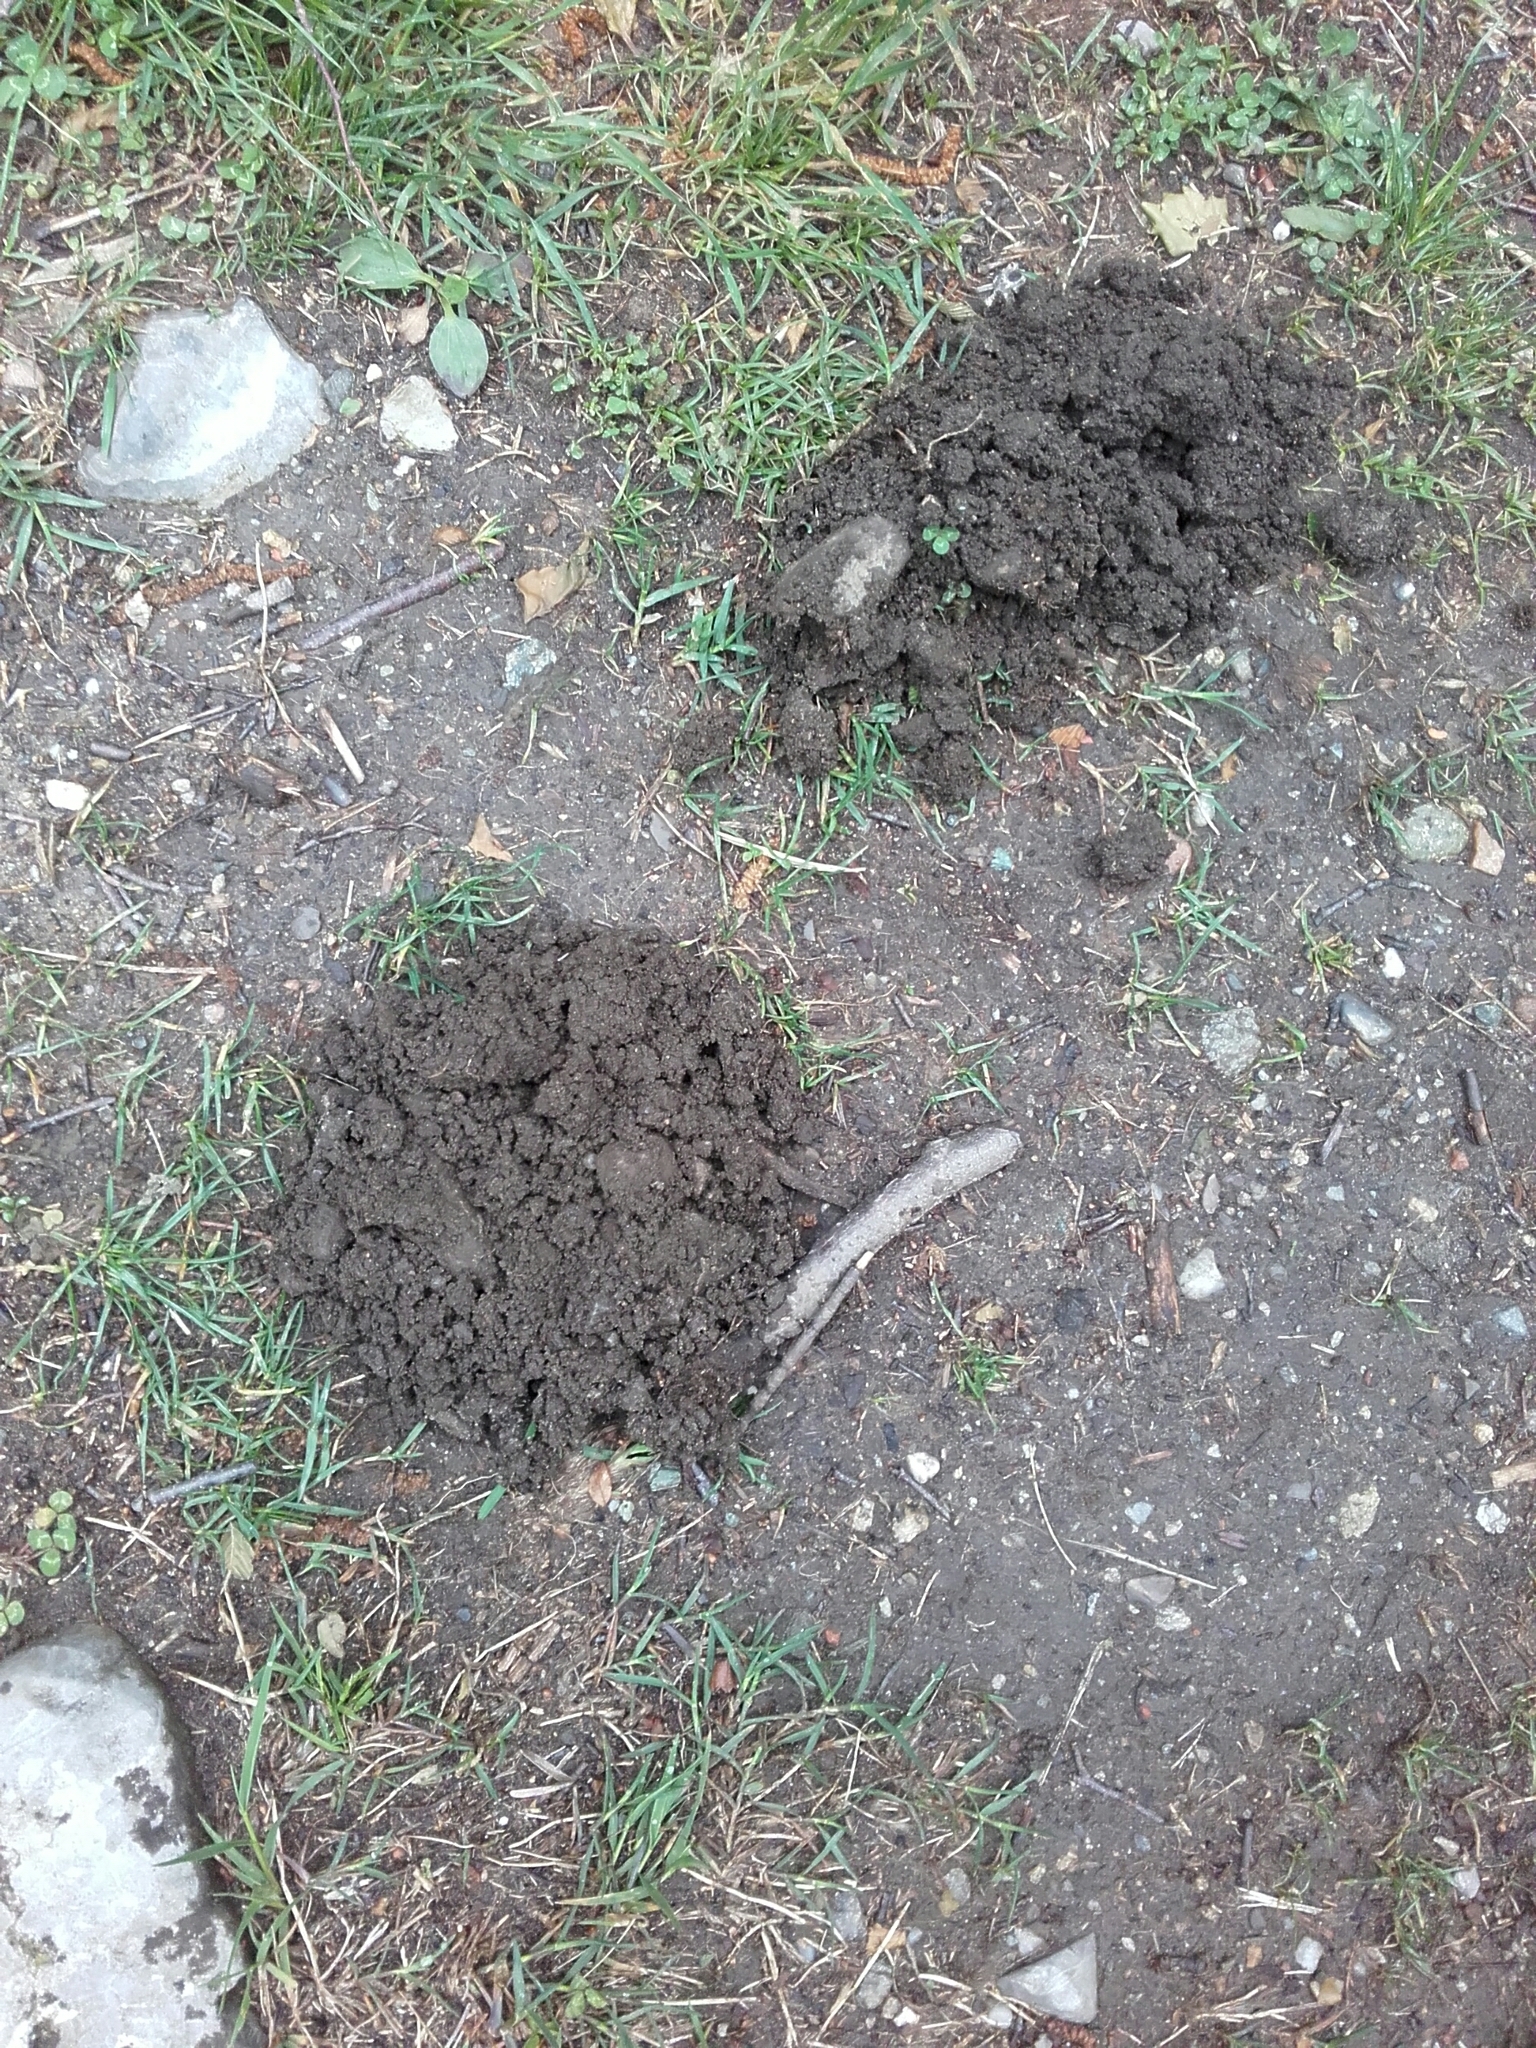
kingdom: Animalia
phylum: Chordata
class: Mammalia
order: Soricomorpha
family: Talpidae
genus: Talpa
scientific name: Talpa europaea
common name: European mole
